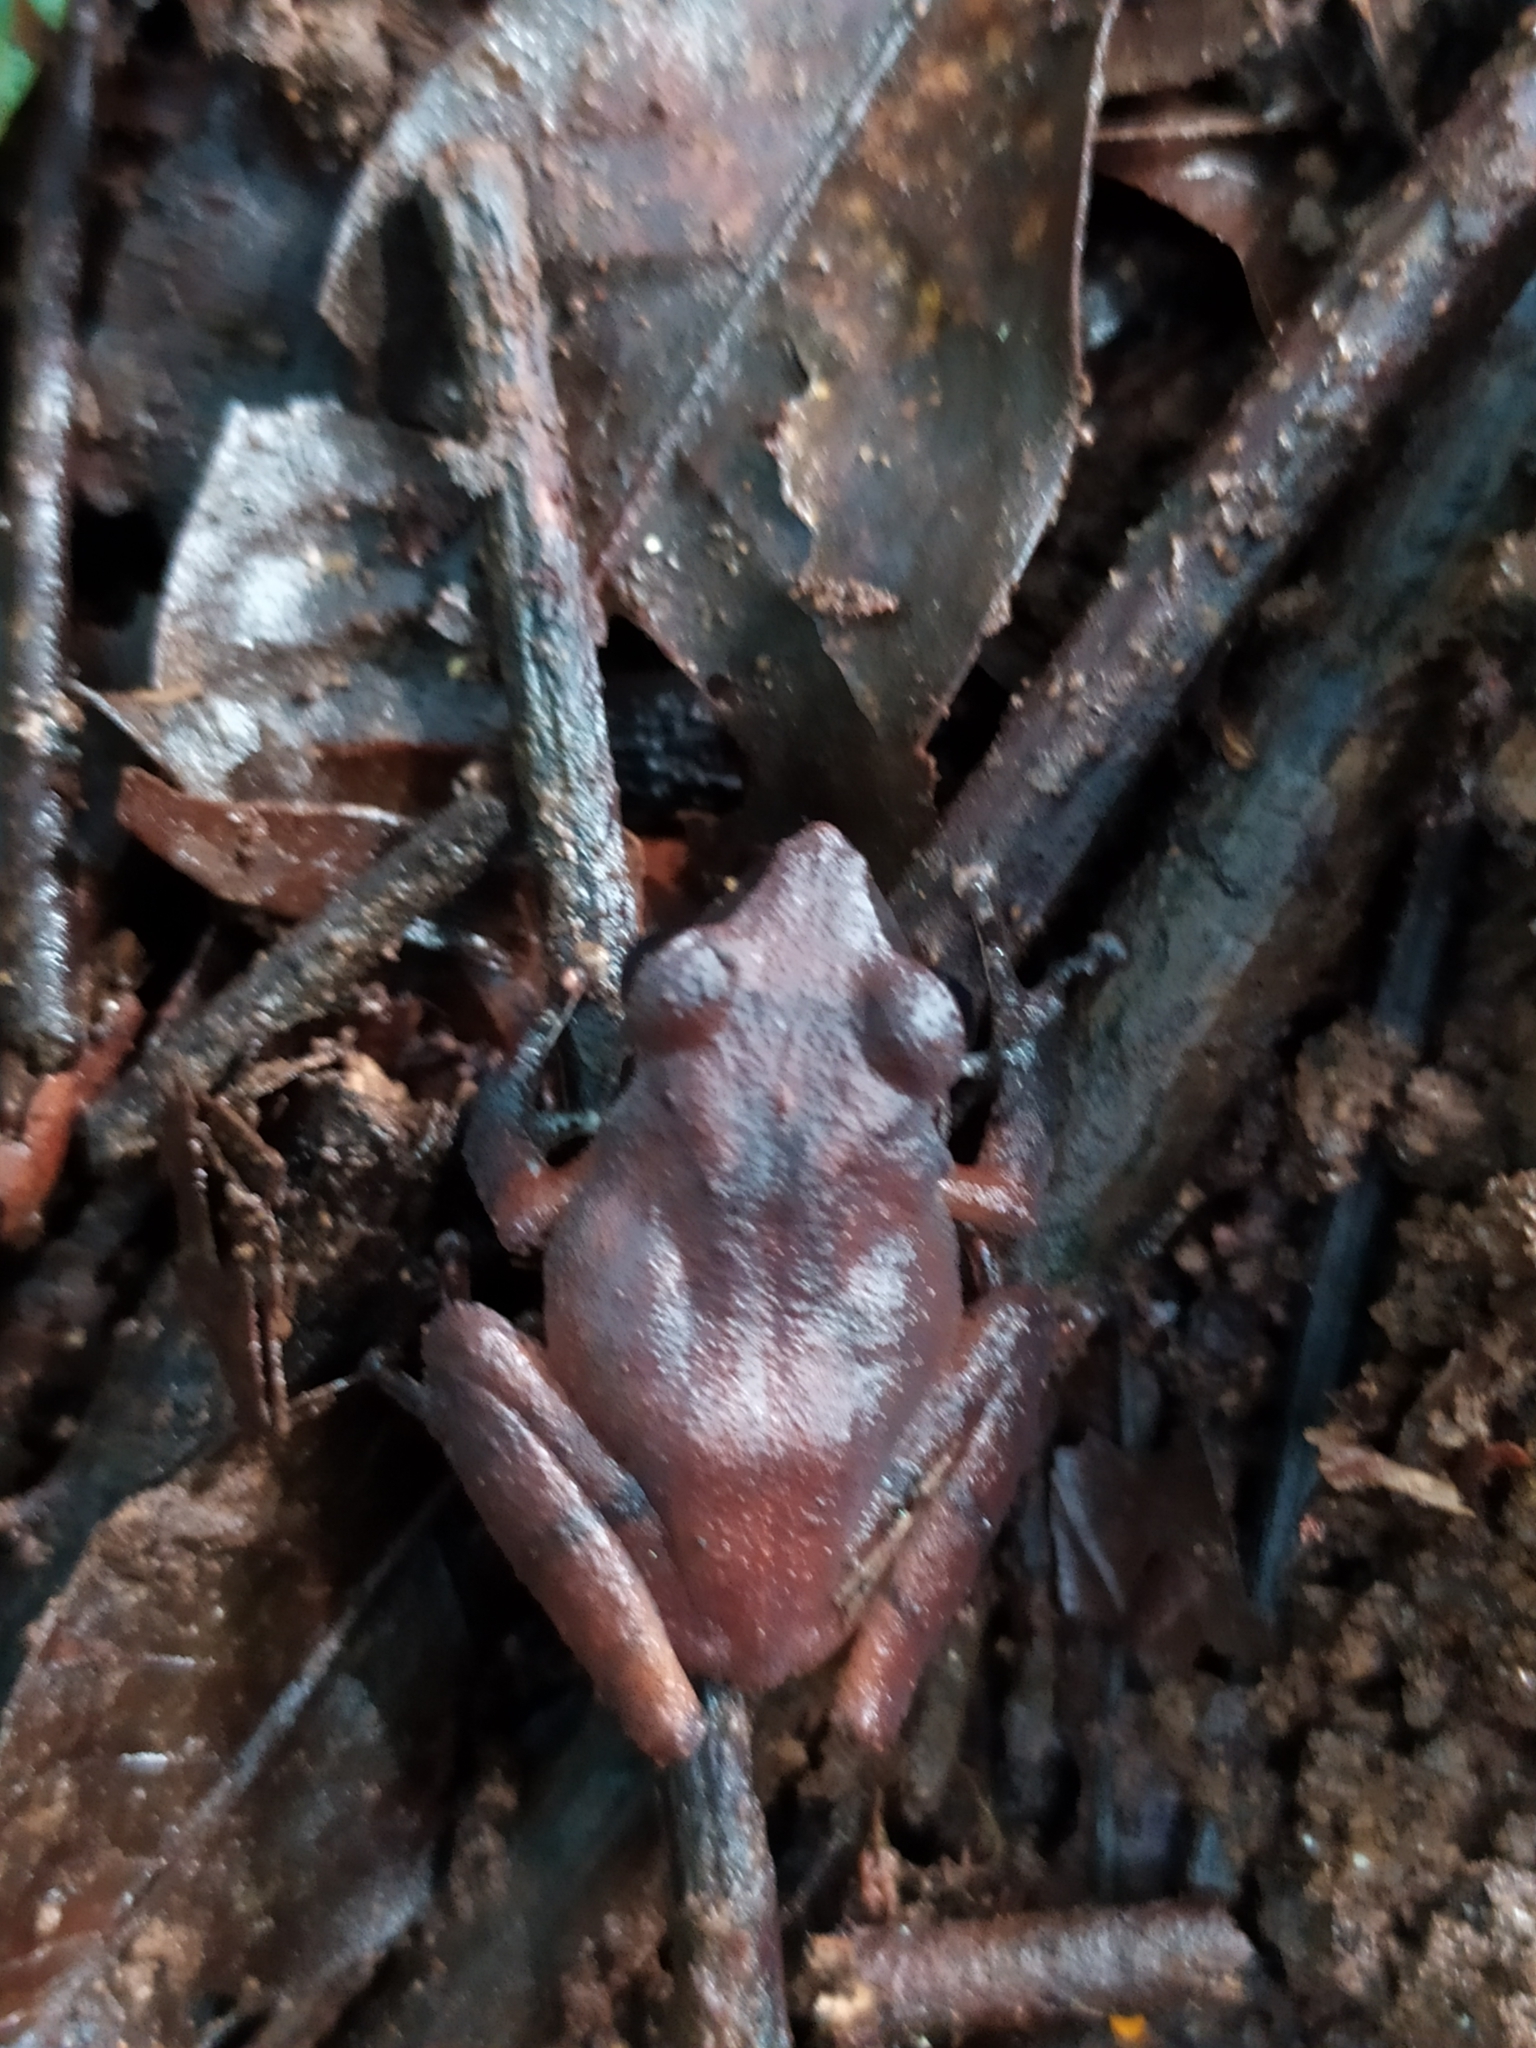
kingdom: Animalia
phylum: Chordata
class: Amphibia
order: Anura
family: Rhacophoridae
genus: Pseudophilautus
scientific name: Pseudophilautus wynaadensis
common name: Dark-eared bush frog
